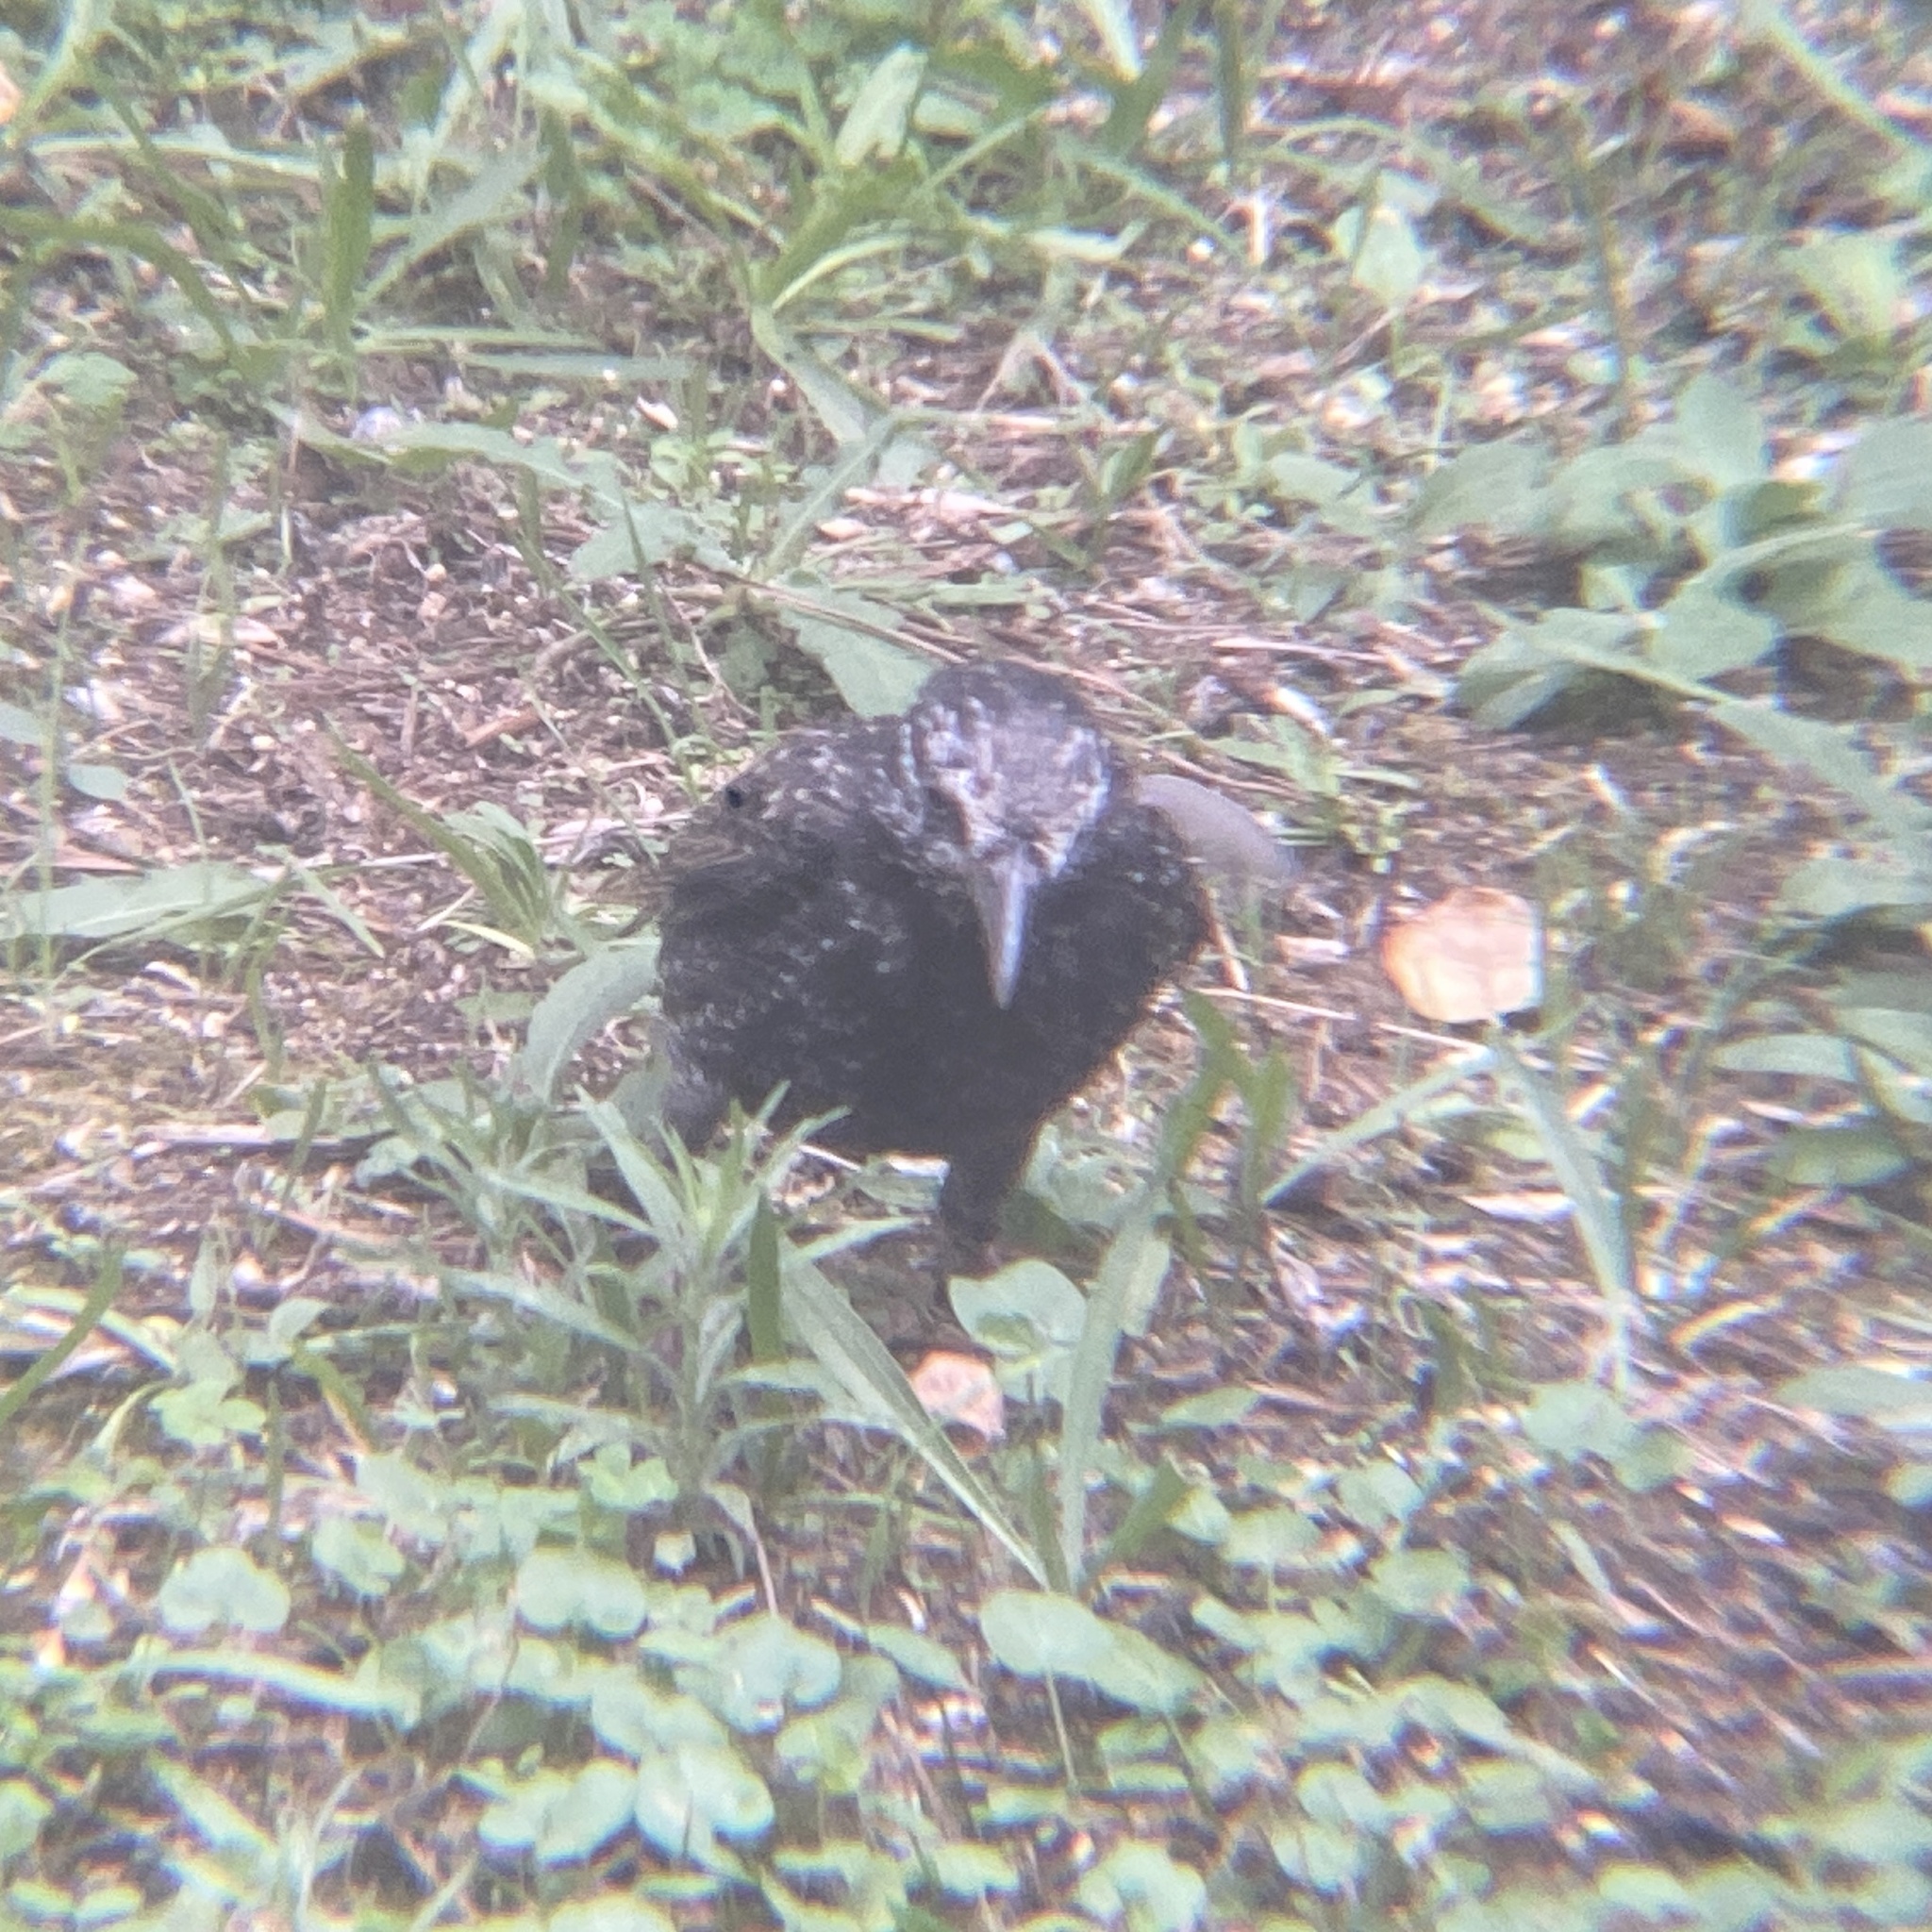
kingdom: Animalia
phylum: Chordata
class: Aves
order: Passeriformes
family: Sturnidae
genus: Sturnus
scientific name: Sturnus vulgaris
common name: Common starling
